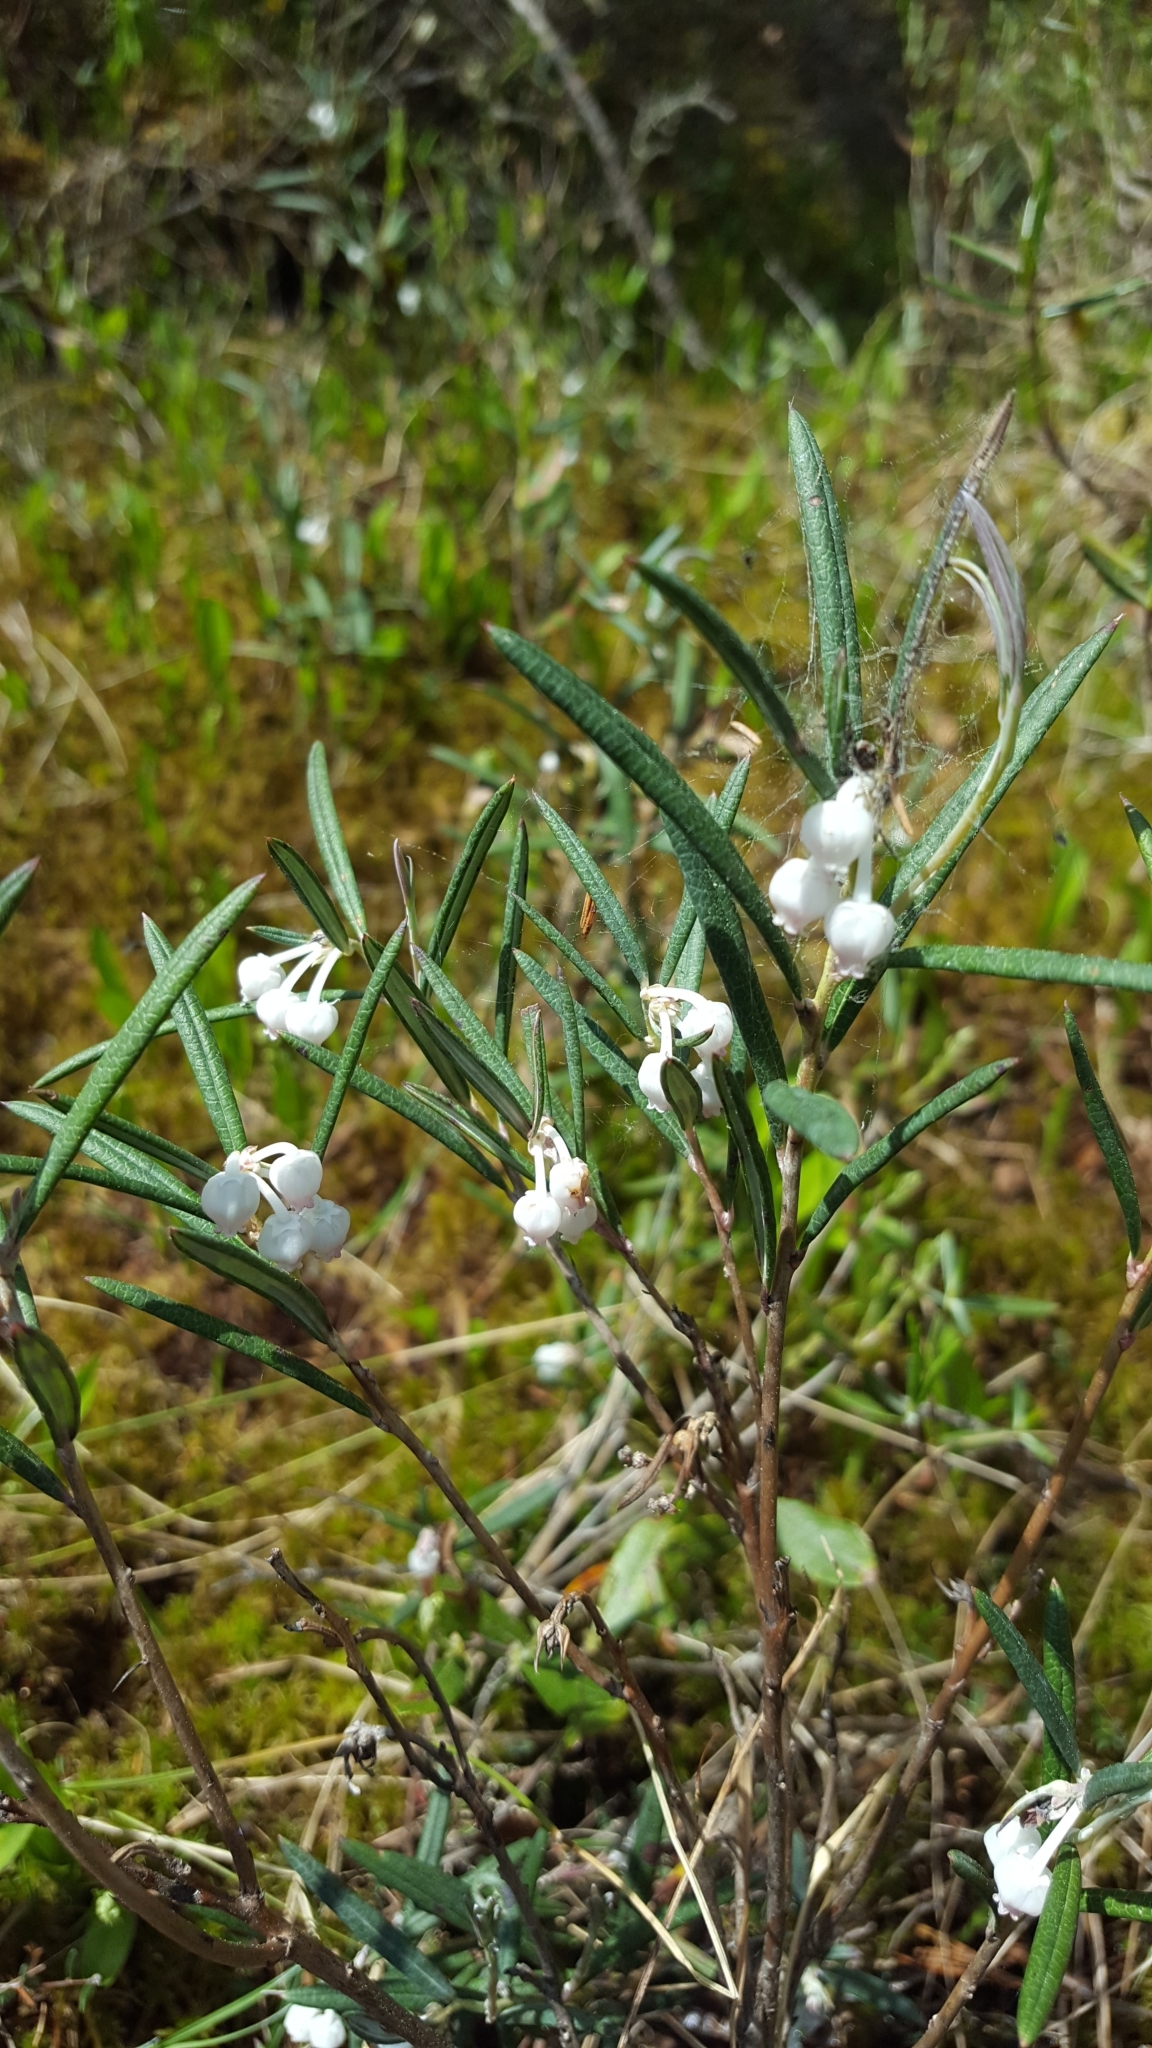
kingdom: Plantae
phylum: Tracheophyta
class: Magnoliopsida
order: Ericales
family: Ericaceae
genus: Andromeda
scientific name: Andromeda polifolia
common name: Bog-rosemary
